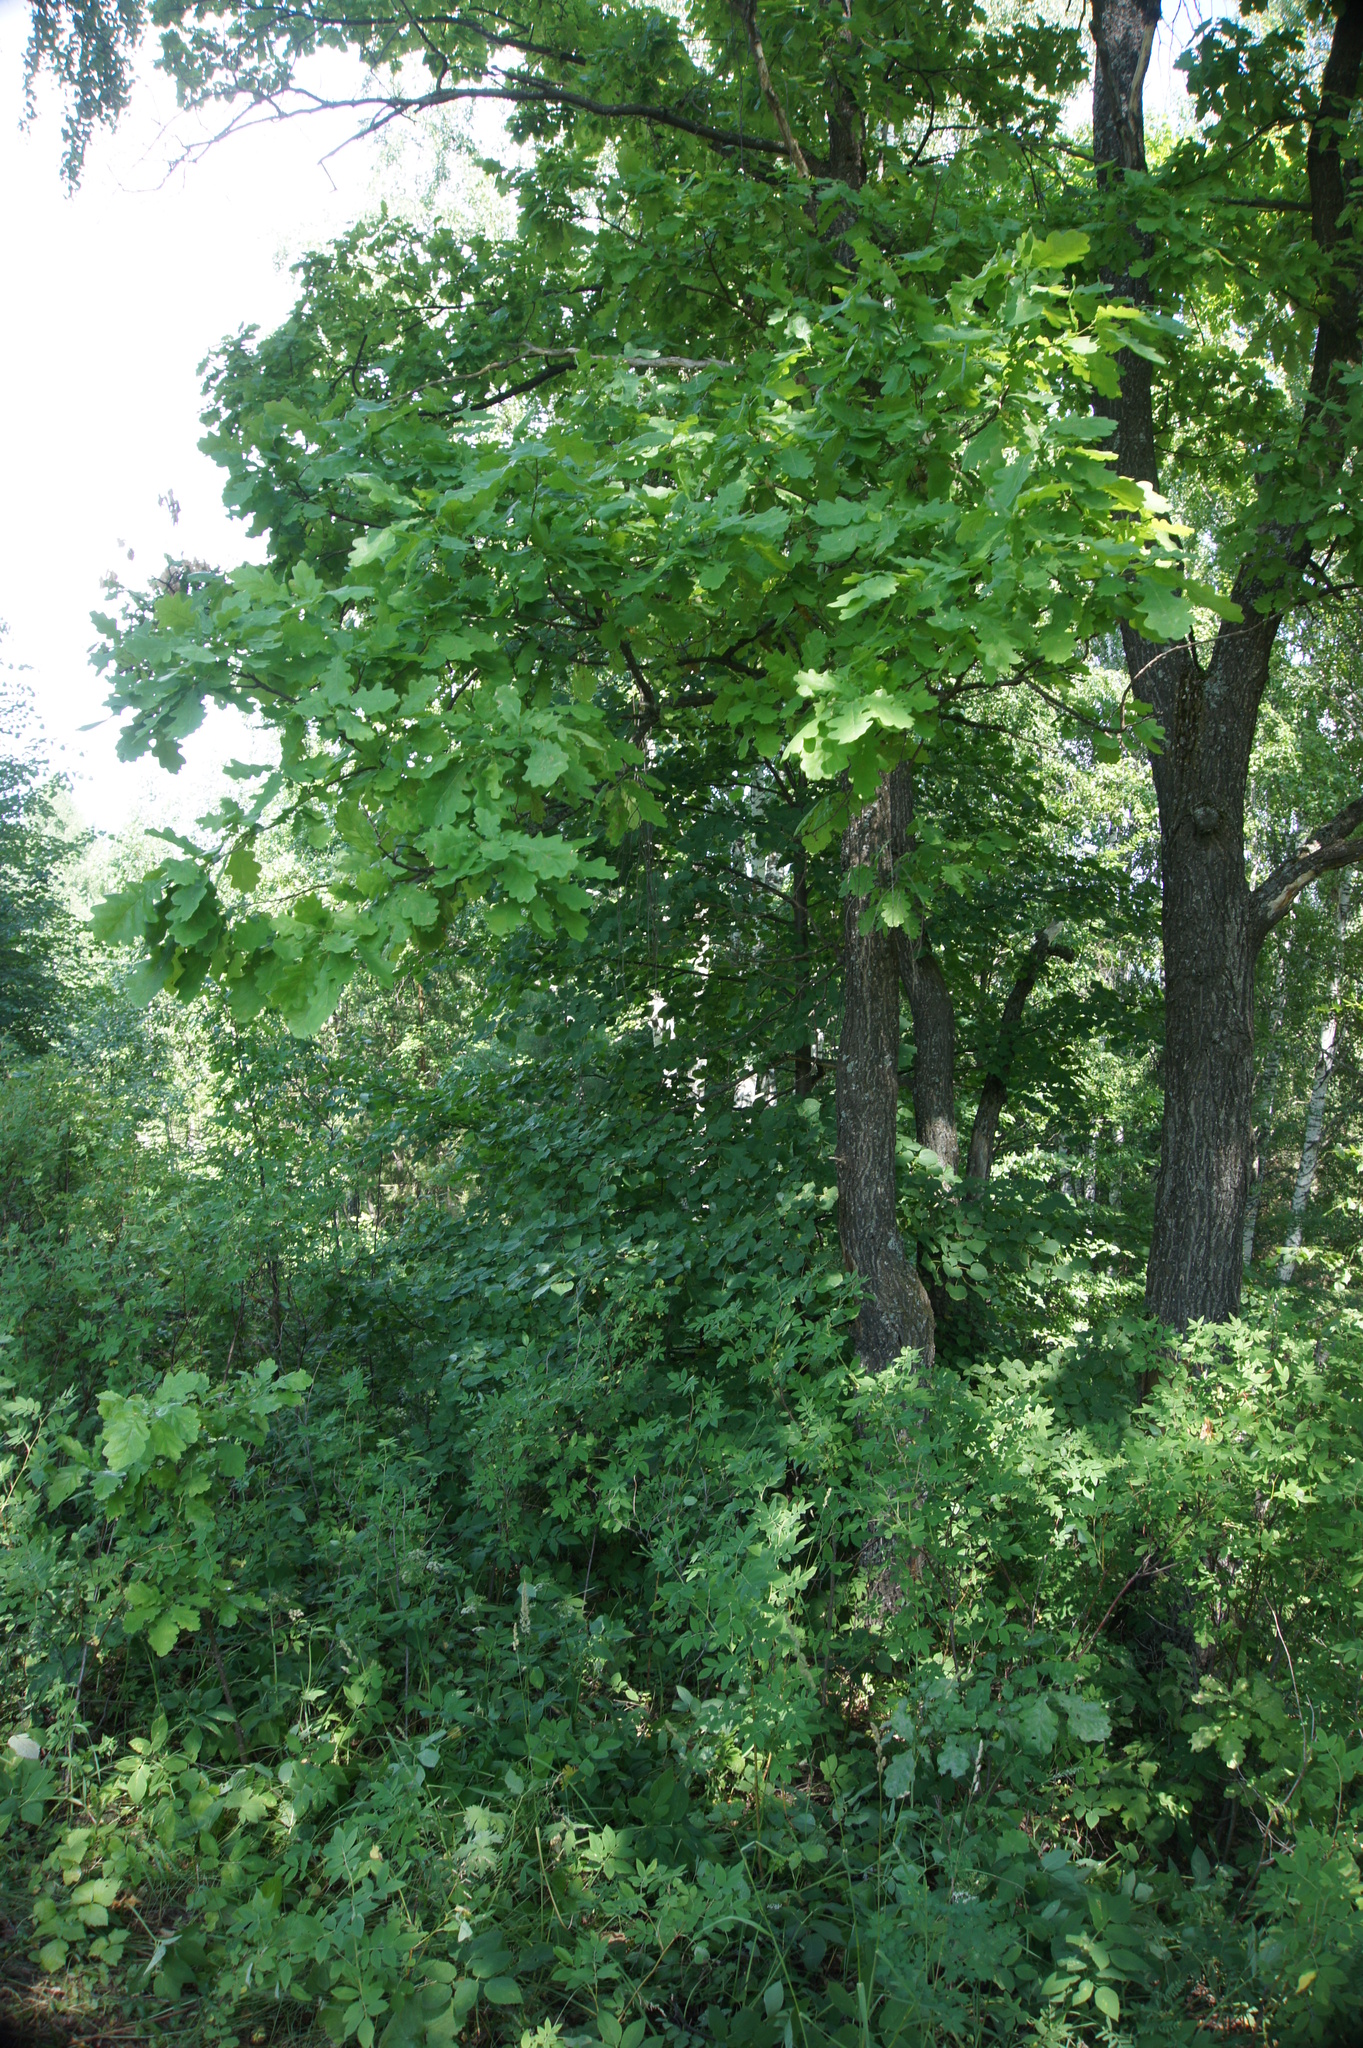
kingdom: Plantae
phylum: Tracheophyta
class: Magnoliopsida
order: Fagales
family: Fagaceae
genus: Quercus
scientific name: Quercus robur
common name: Pedunculate oak
